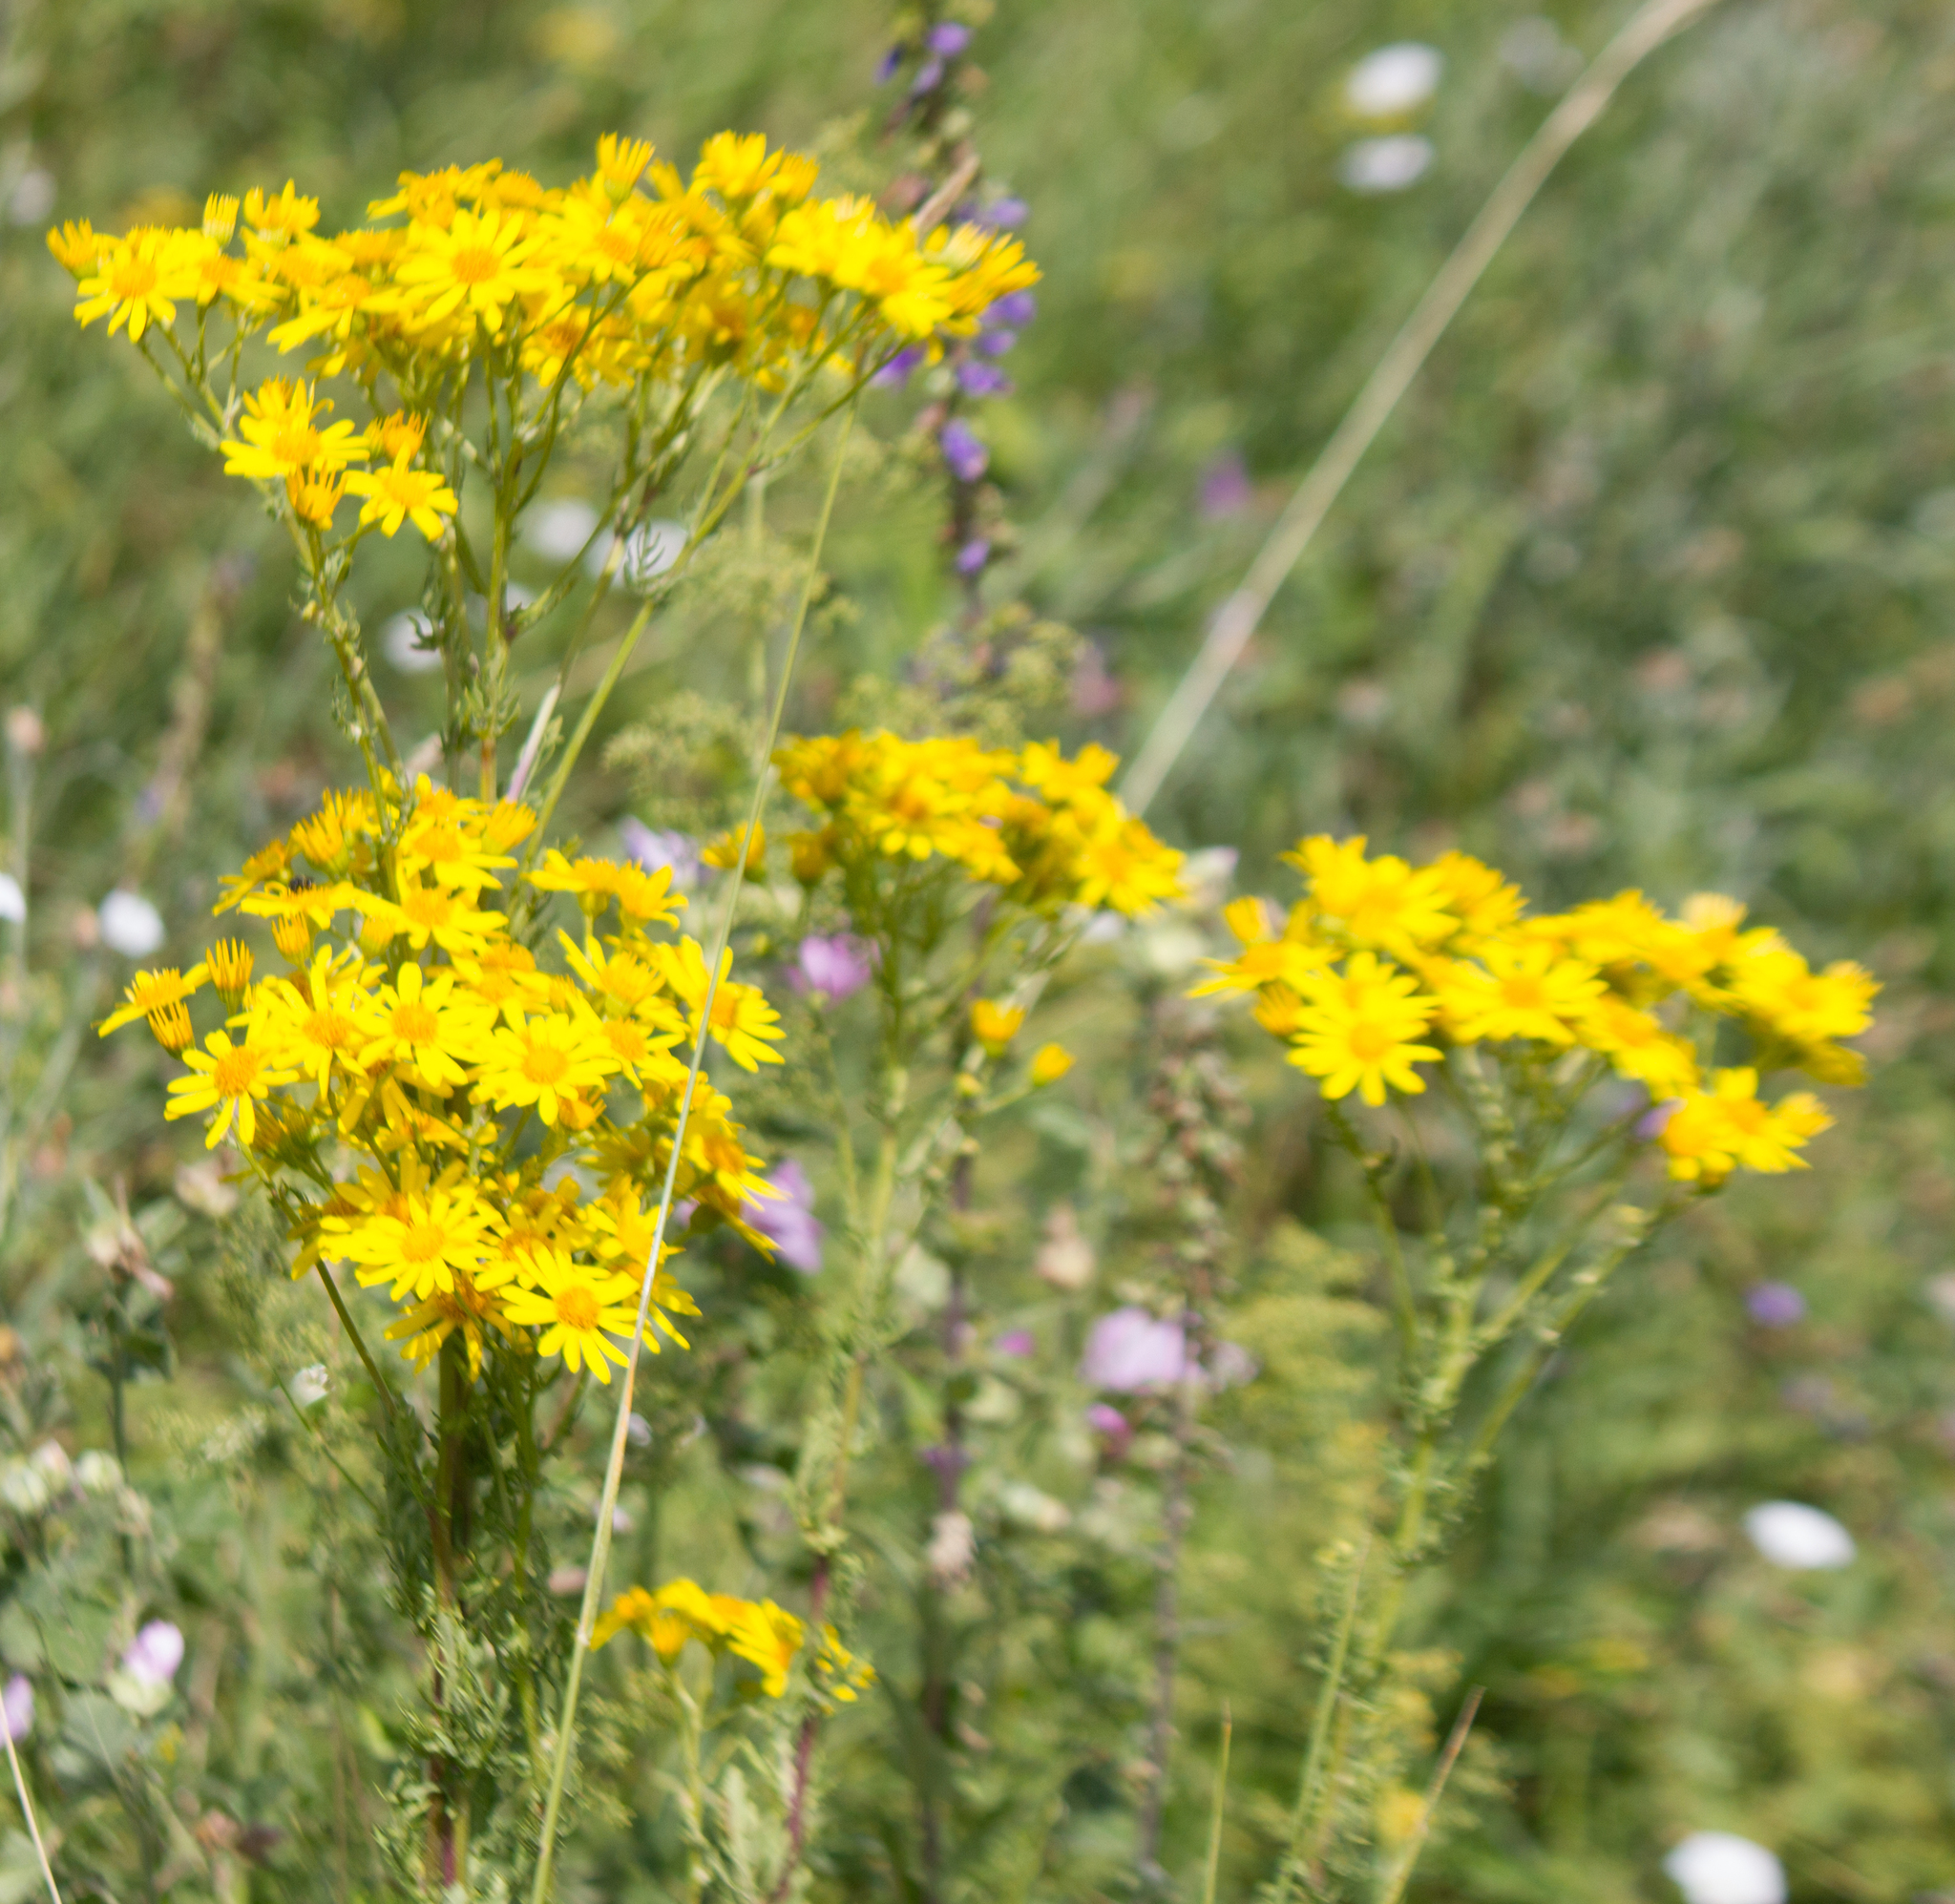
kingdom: Plantae
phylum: Tracheophyta
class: Magnoliopsida
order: Asterales
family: Asteraceae
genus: Jacobaea
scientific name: Jacobaea vulgaris
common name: Stinking willie
